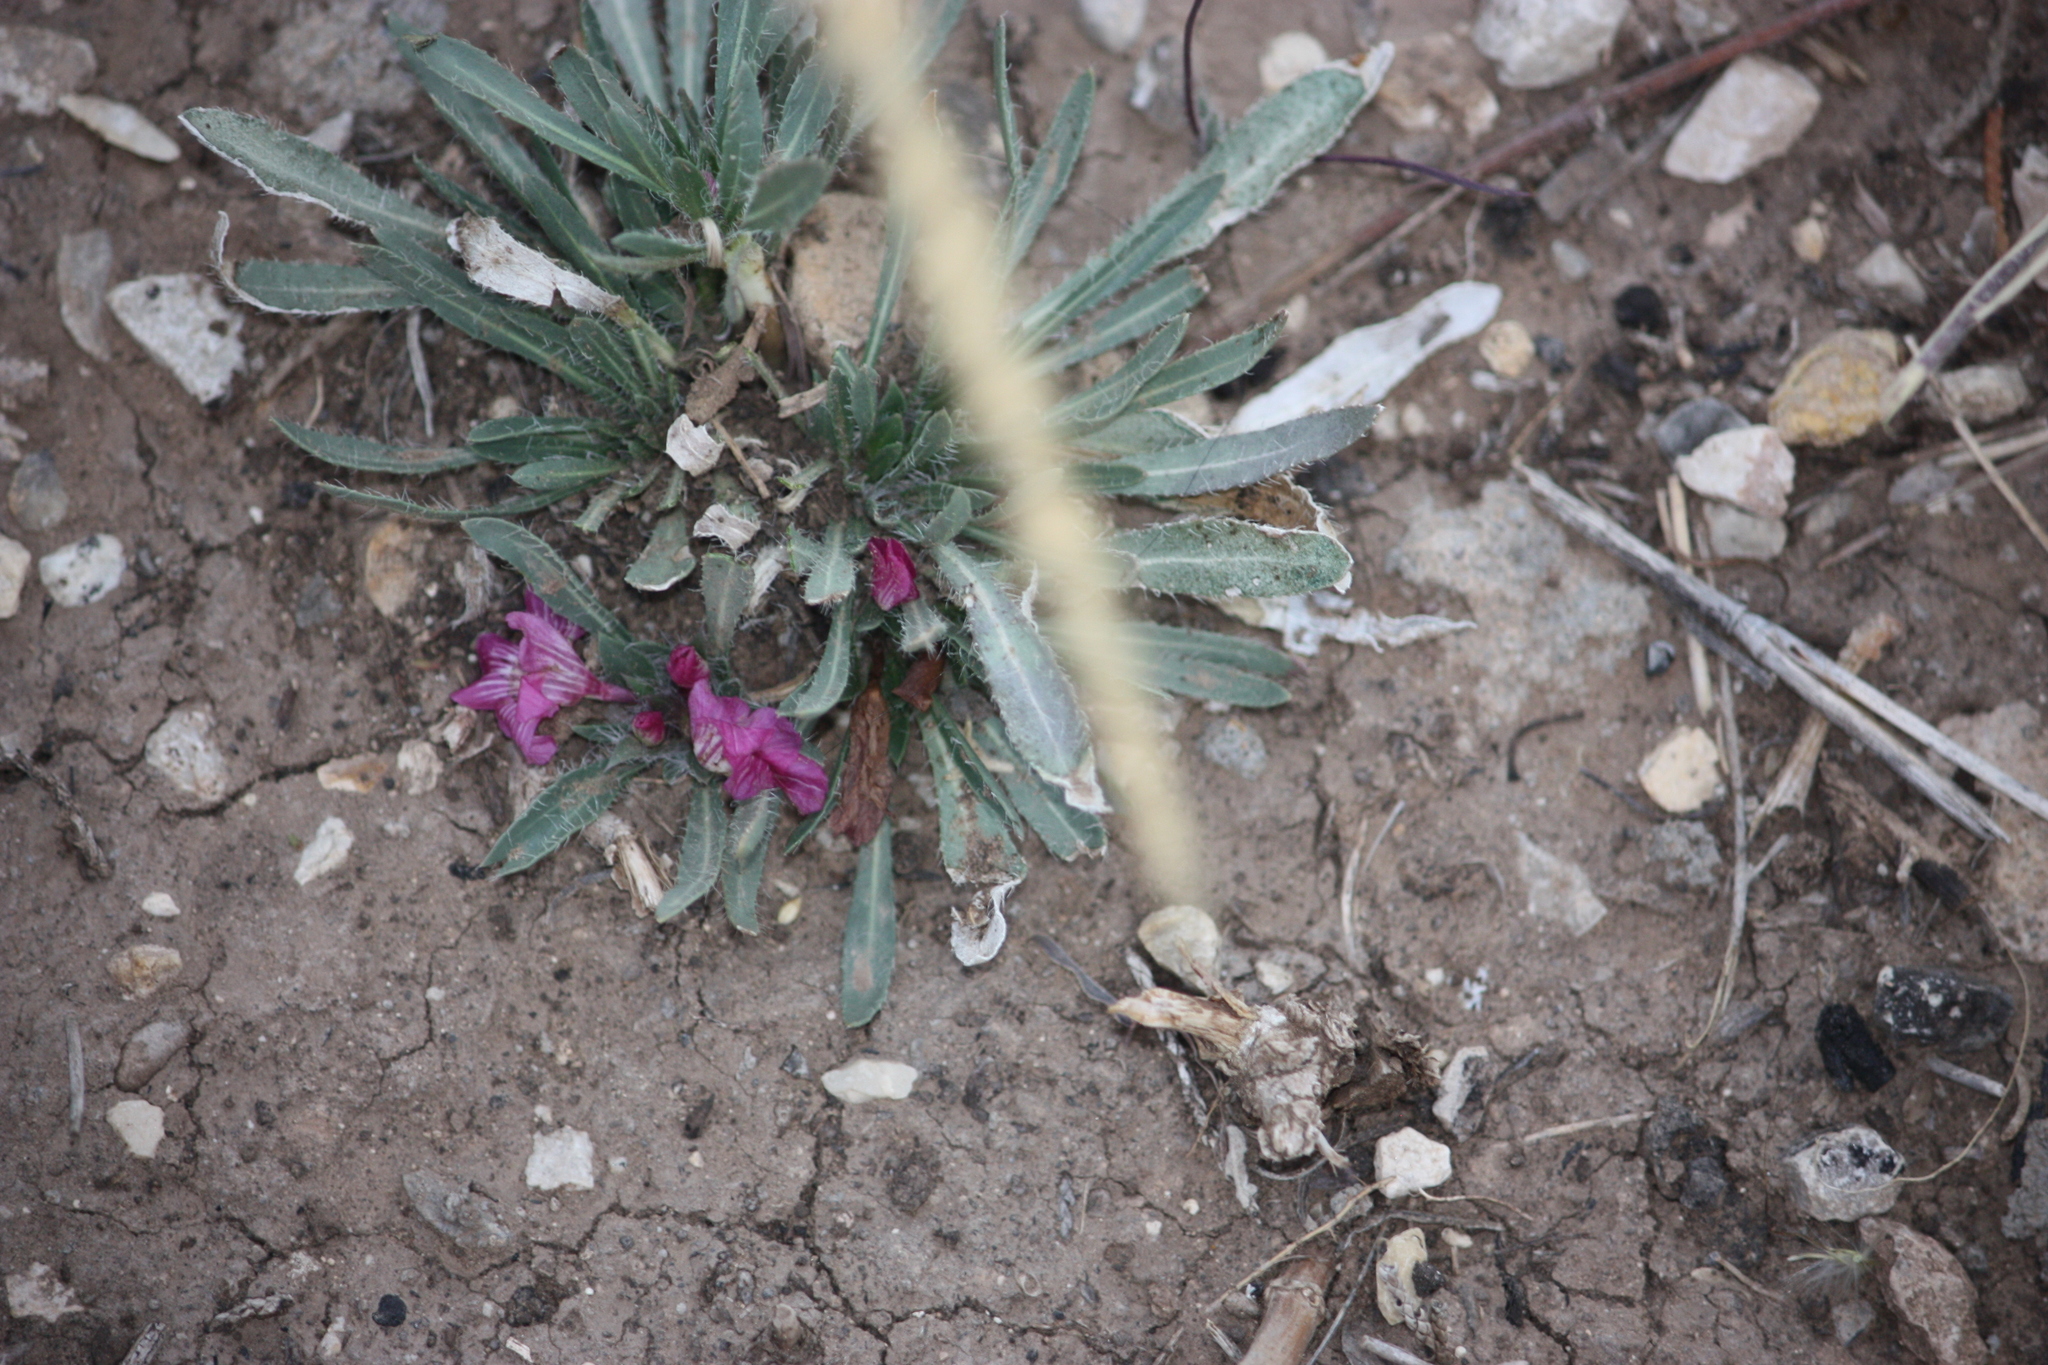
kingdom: Plantae
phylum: Tracheophyta
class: Magnoliopsida
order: Lamiales
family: Acanthaceae
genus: Stenandrium
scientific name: Stenandrium barbatum
